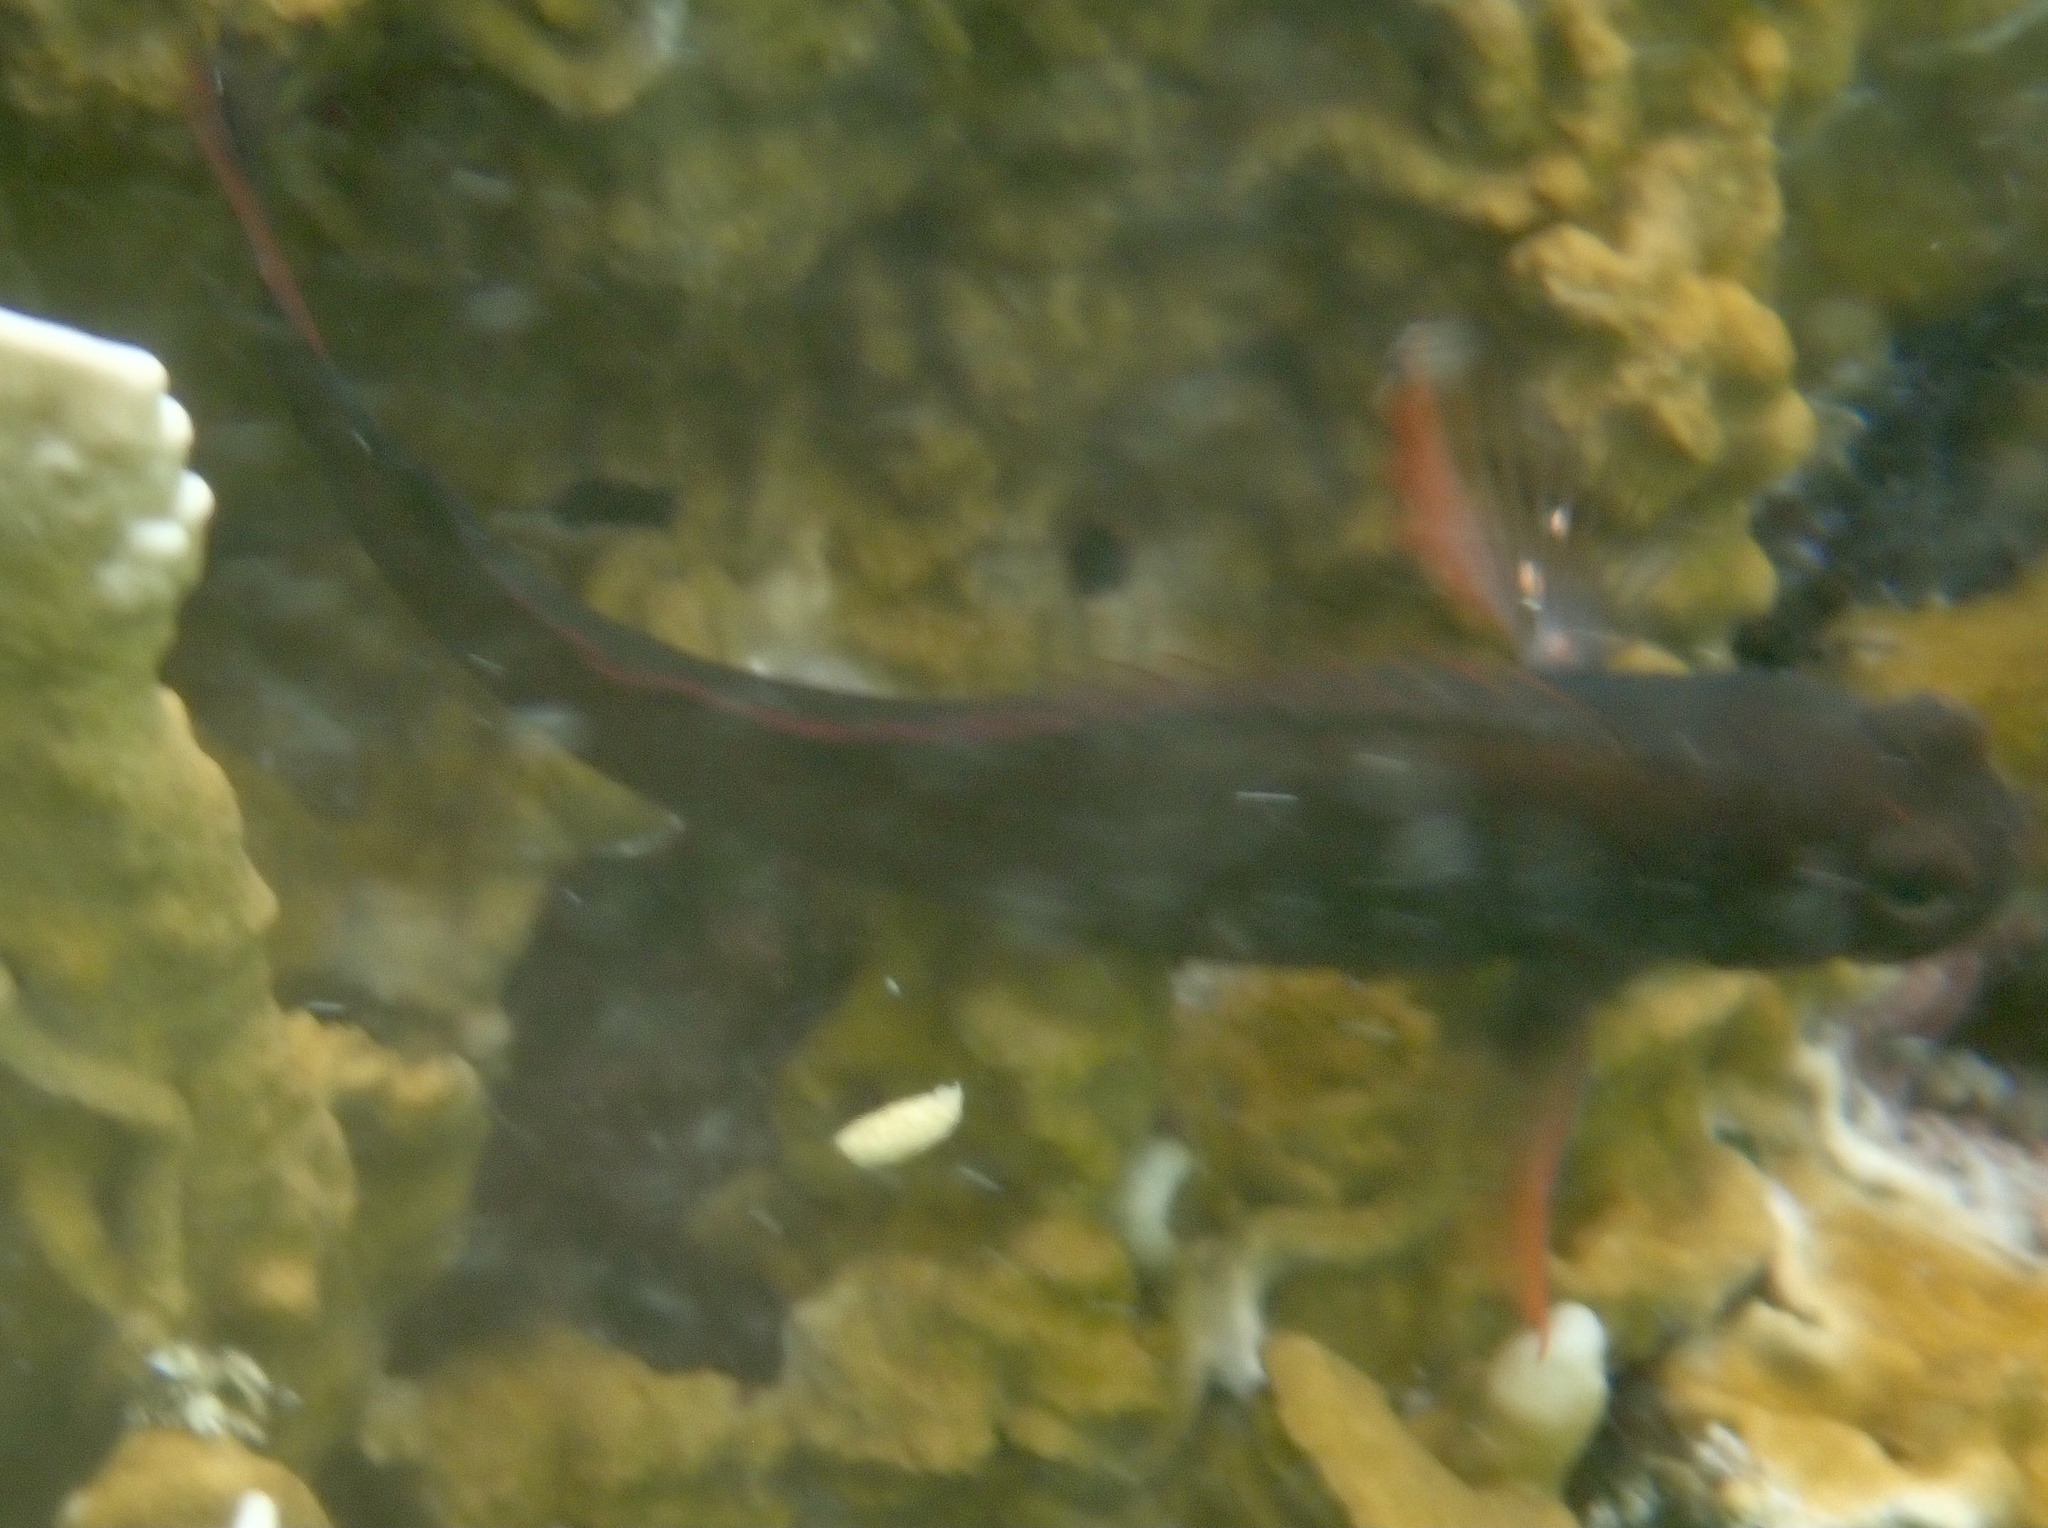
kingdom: Animalia
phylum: Chordata
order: Perciformes
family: Blenniidae
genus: Ophioblennius
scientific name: Ophioblennius macclurei
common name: Redlip blenny
